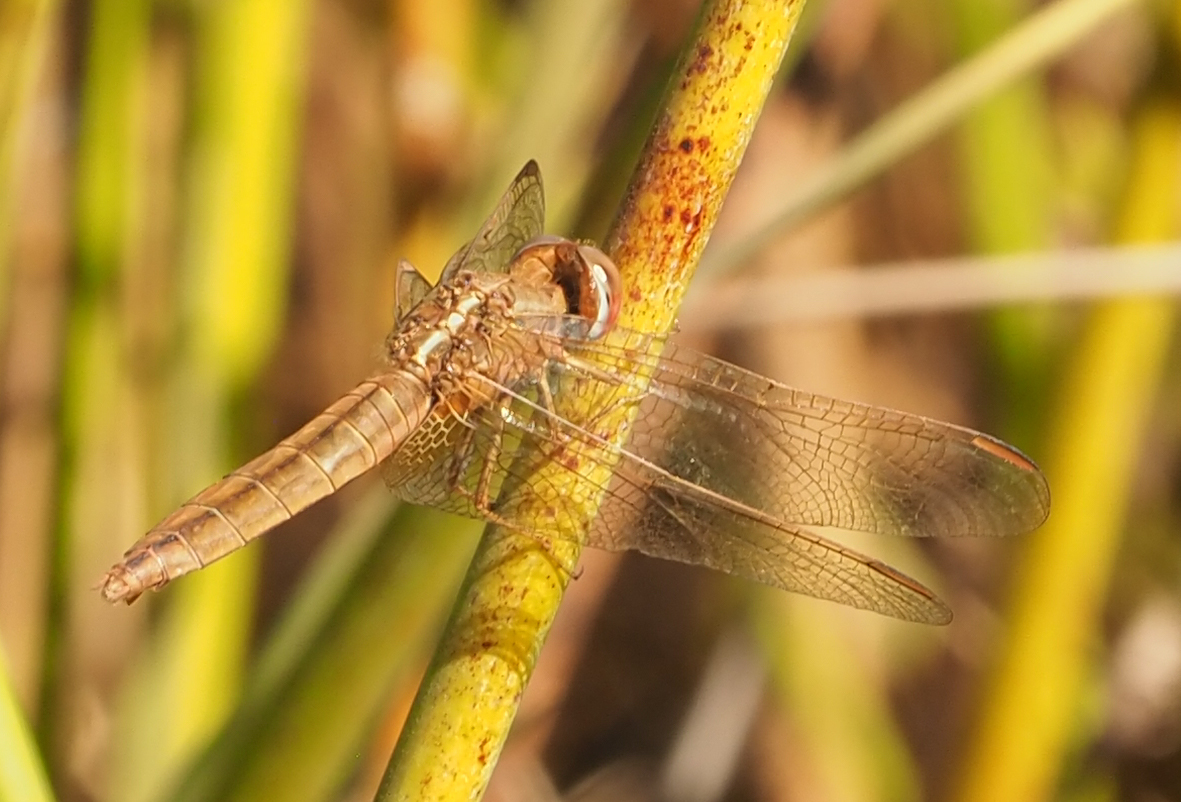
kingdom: Animalia
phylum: Arthropoda
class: Insecta
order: Odonata
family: Libellulidae
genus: Crocothemis
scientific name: Crocothemis erythraea
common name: Scarlet dragonfly
